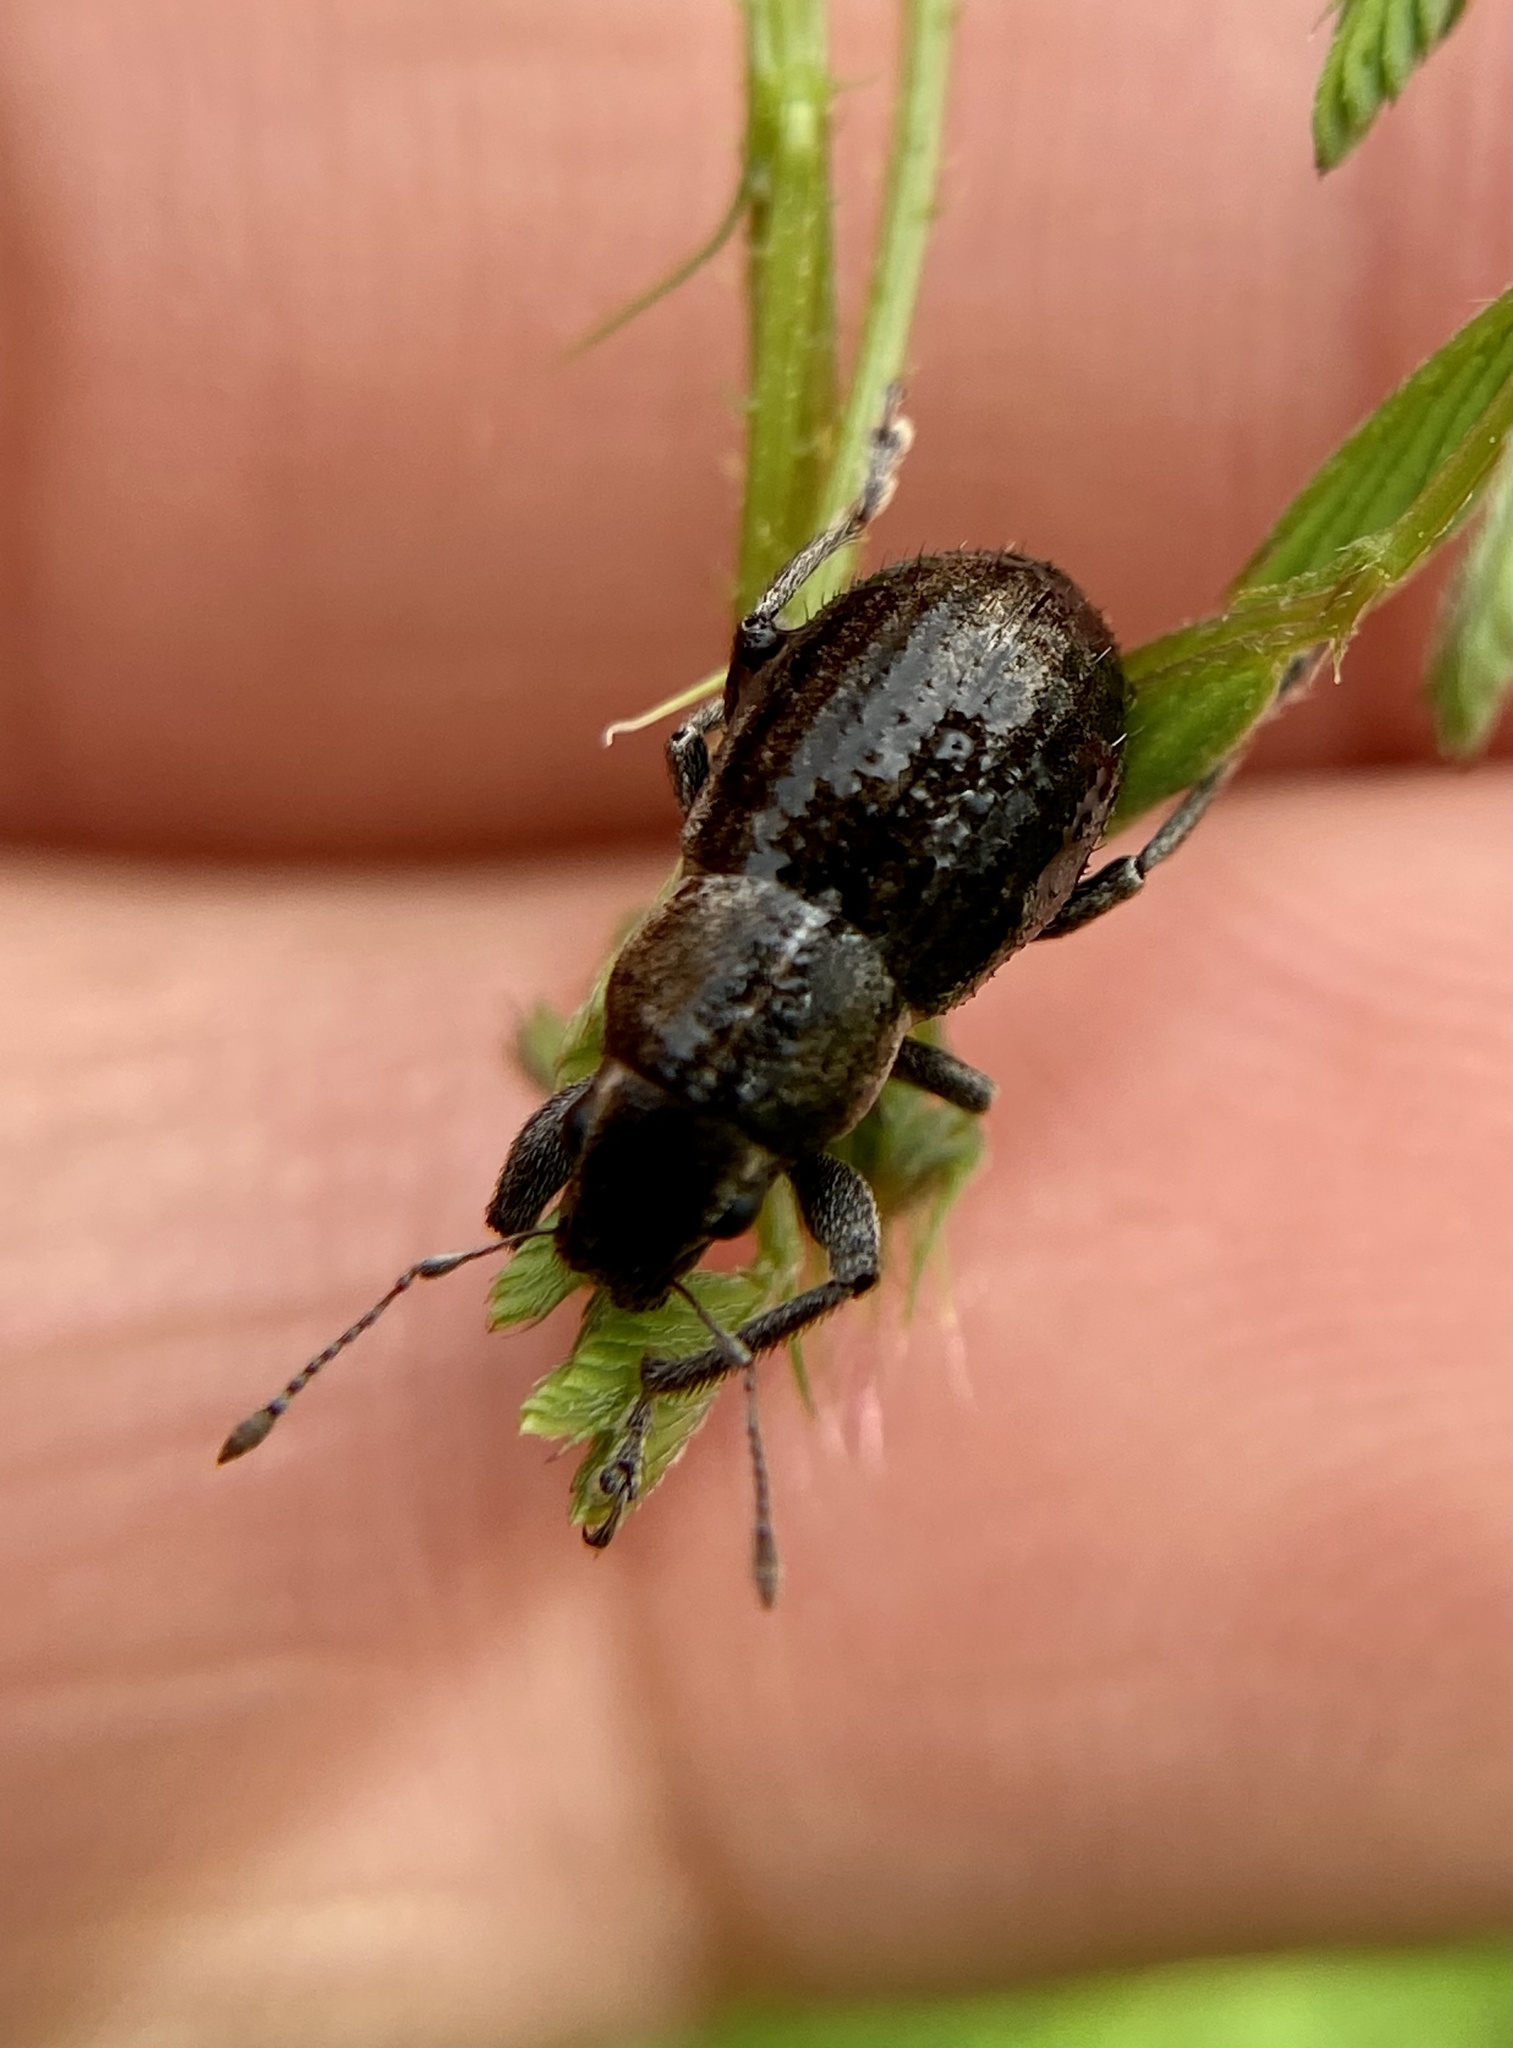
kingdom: Animalia
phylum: Arthropoda
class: Insecta
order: Coleoptera
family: Curculionidae
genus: Naupactus
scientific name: Naupactus leucoloma
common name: Whitefringed beetle
